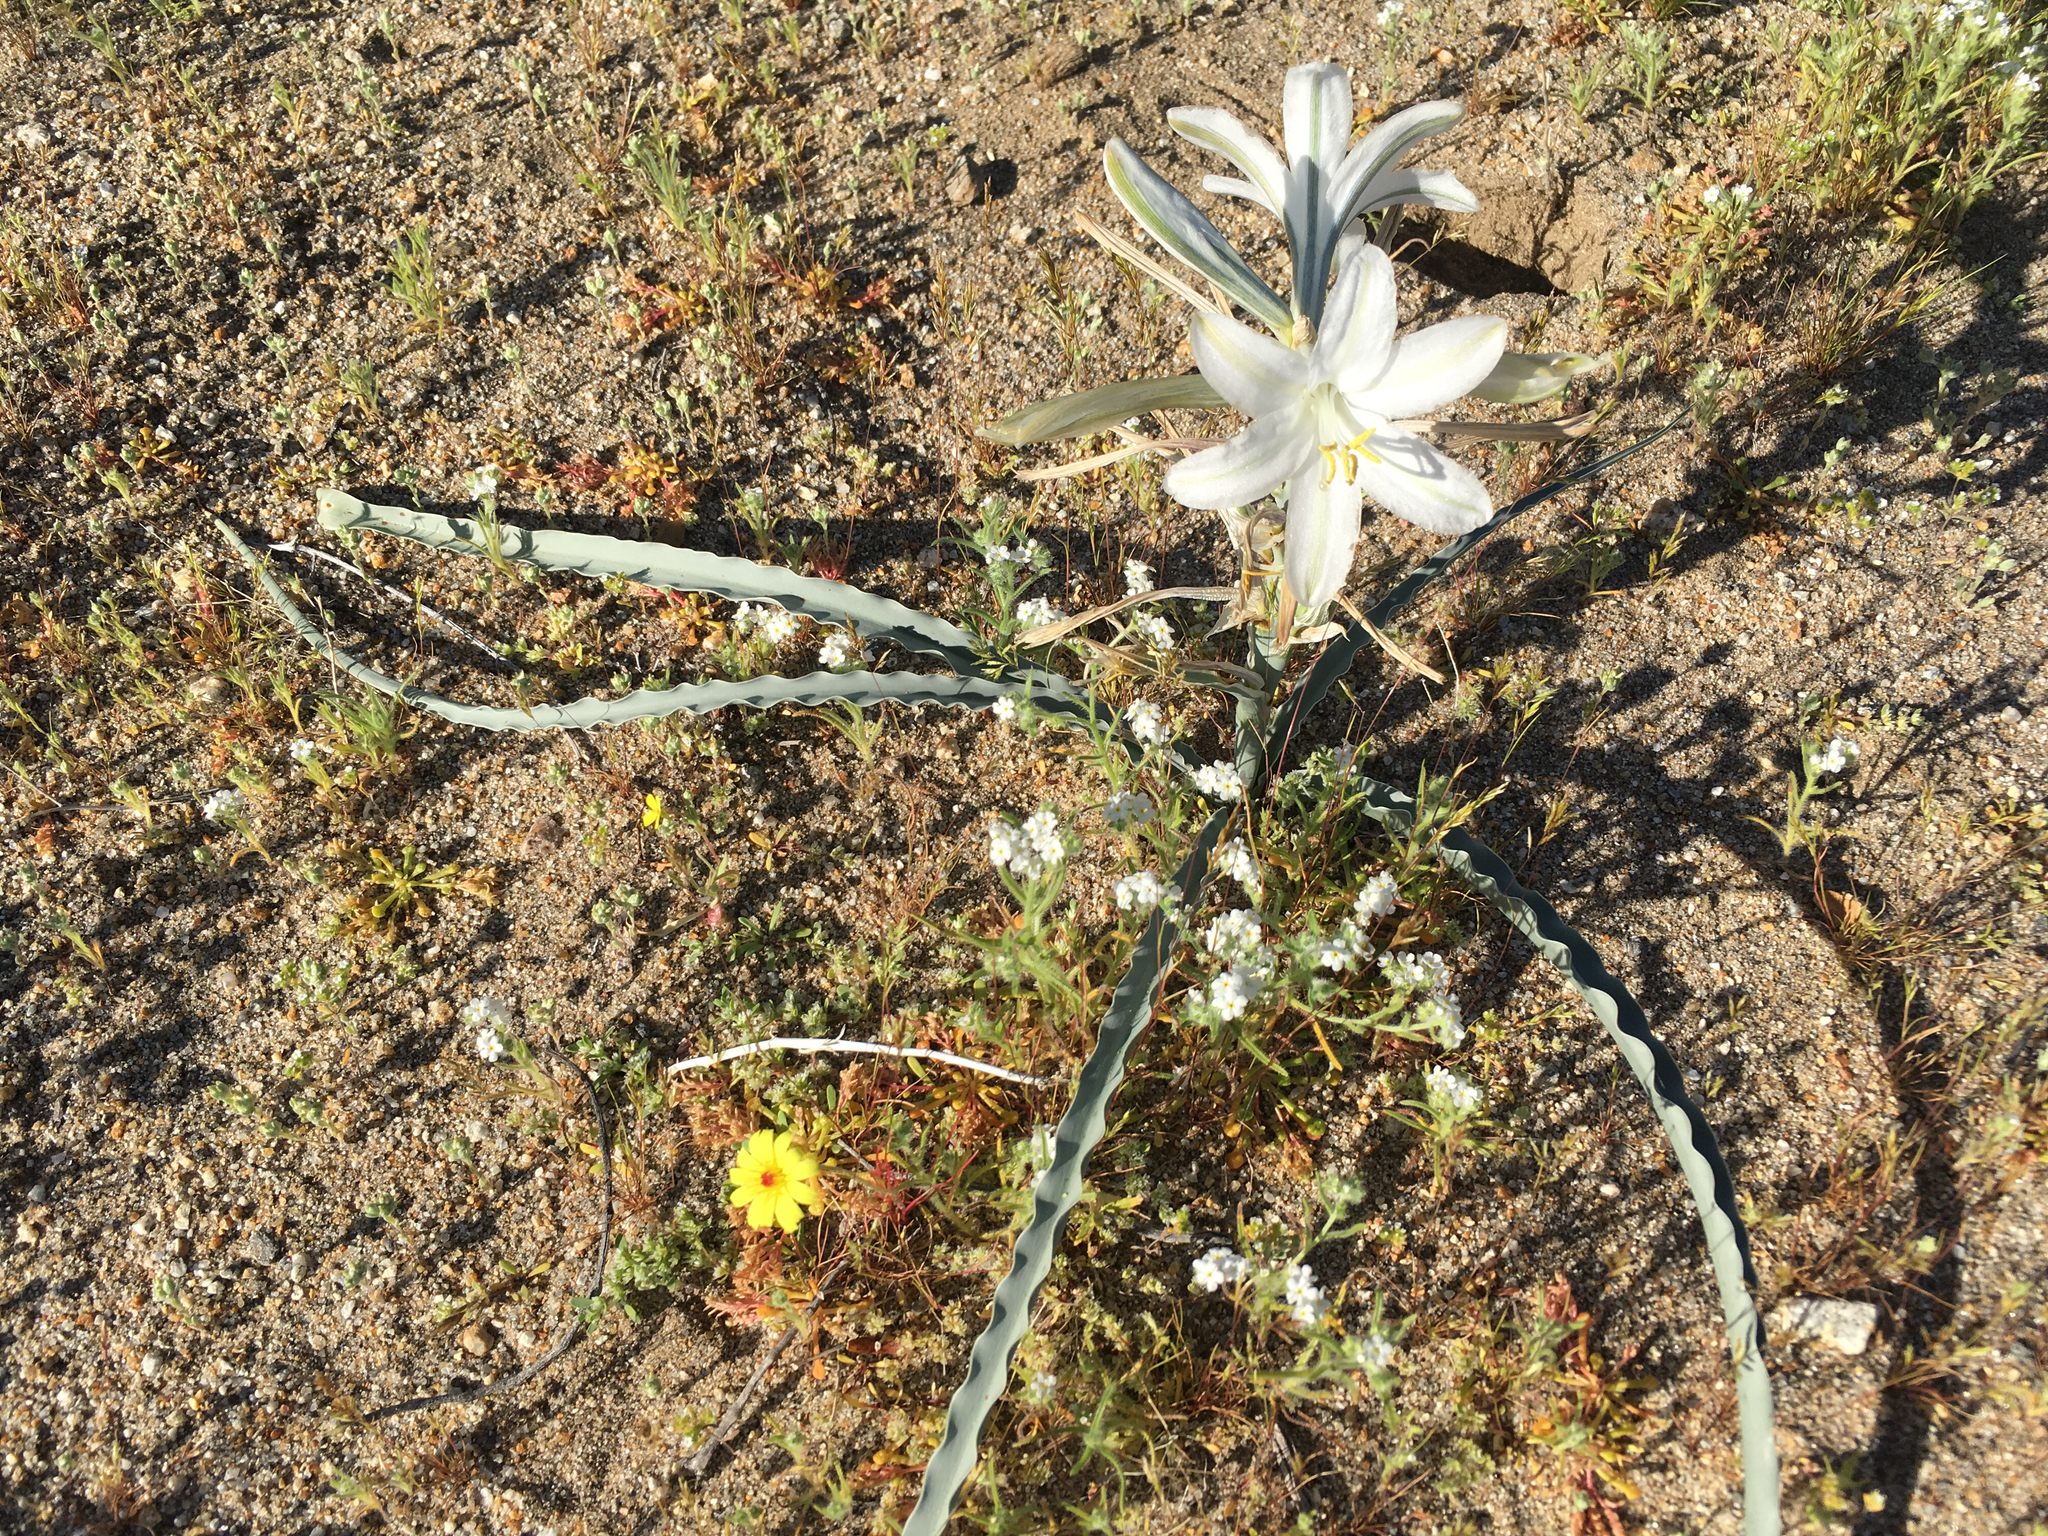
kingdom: Plantae
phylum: Tracheophyta
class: Liliopsida
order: Asparagales
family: Asparagaceae
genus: Hesperocallis
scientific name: Hesperocallis undulata
